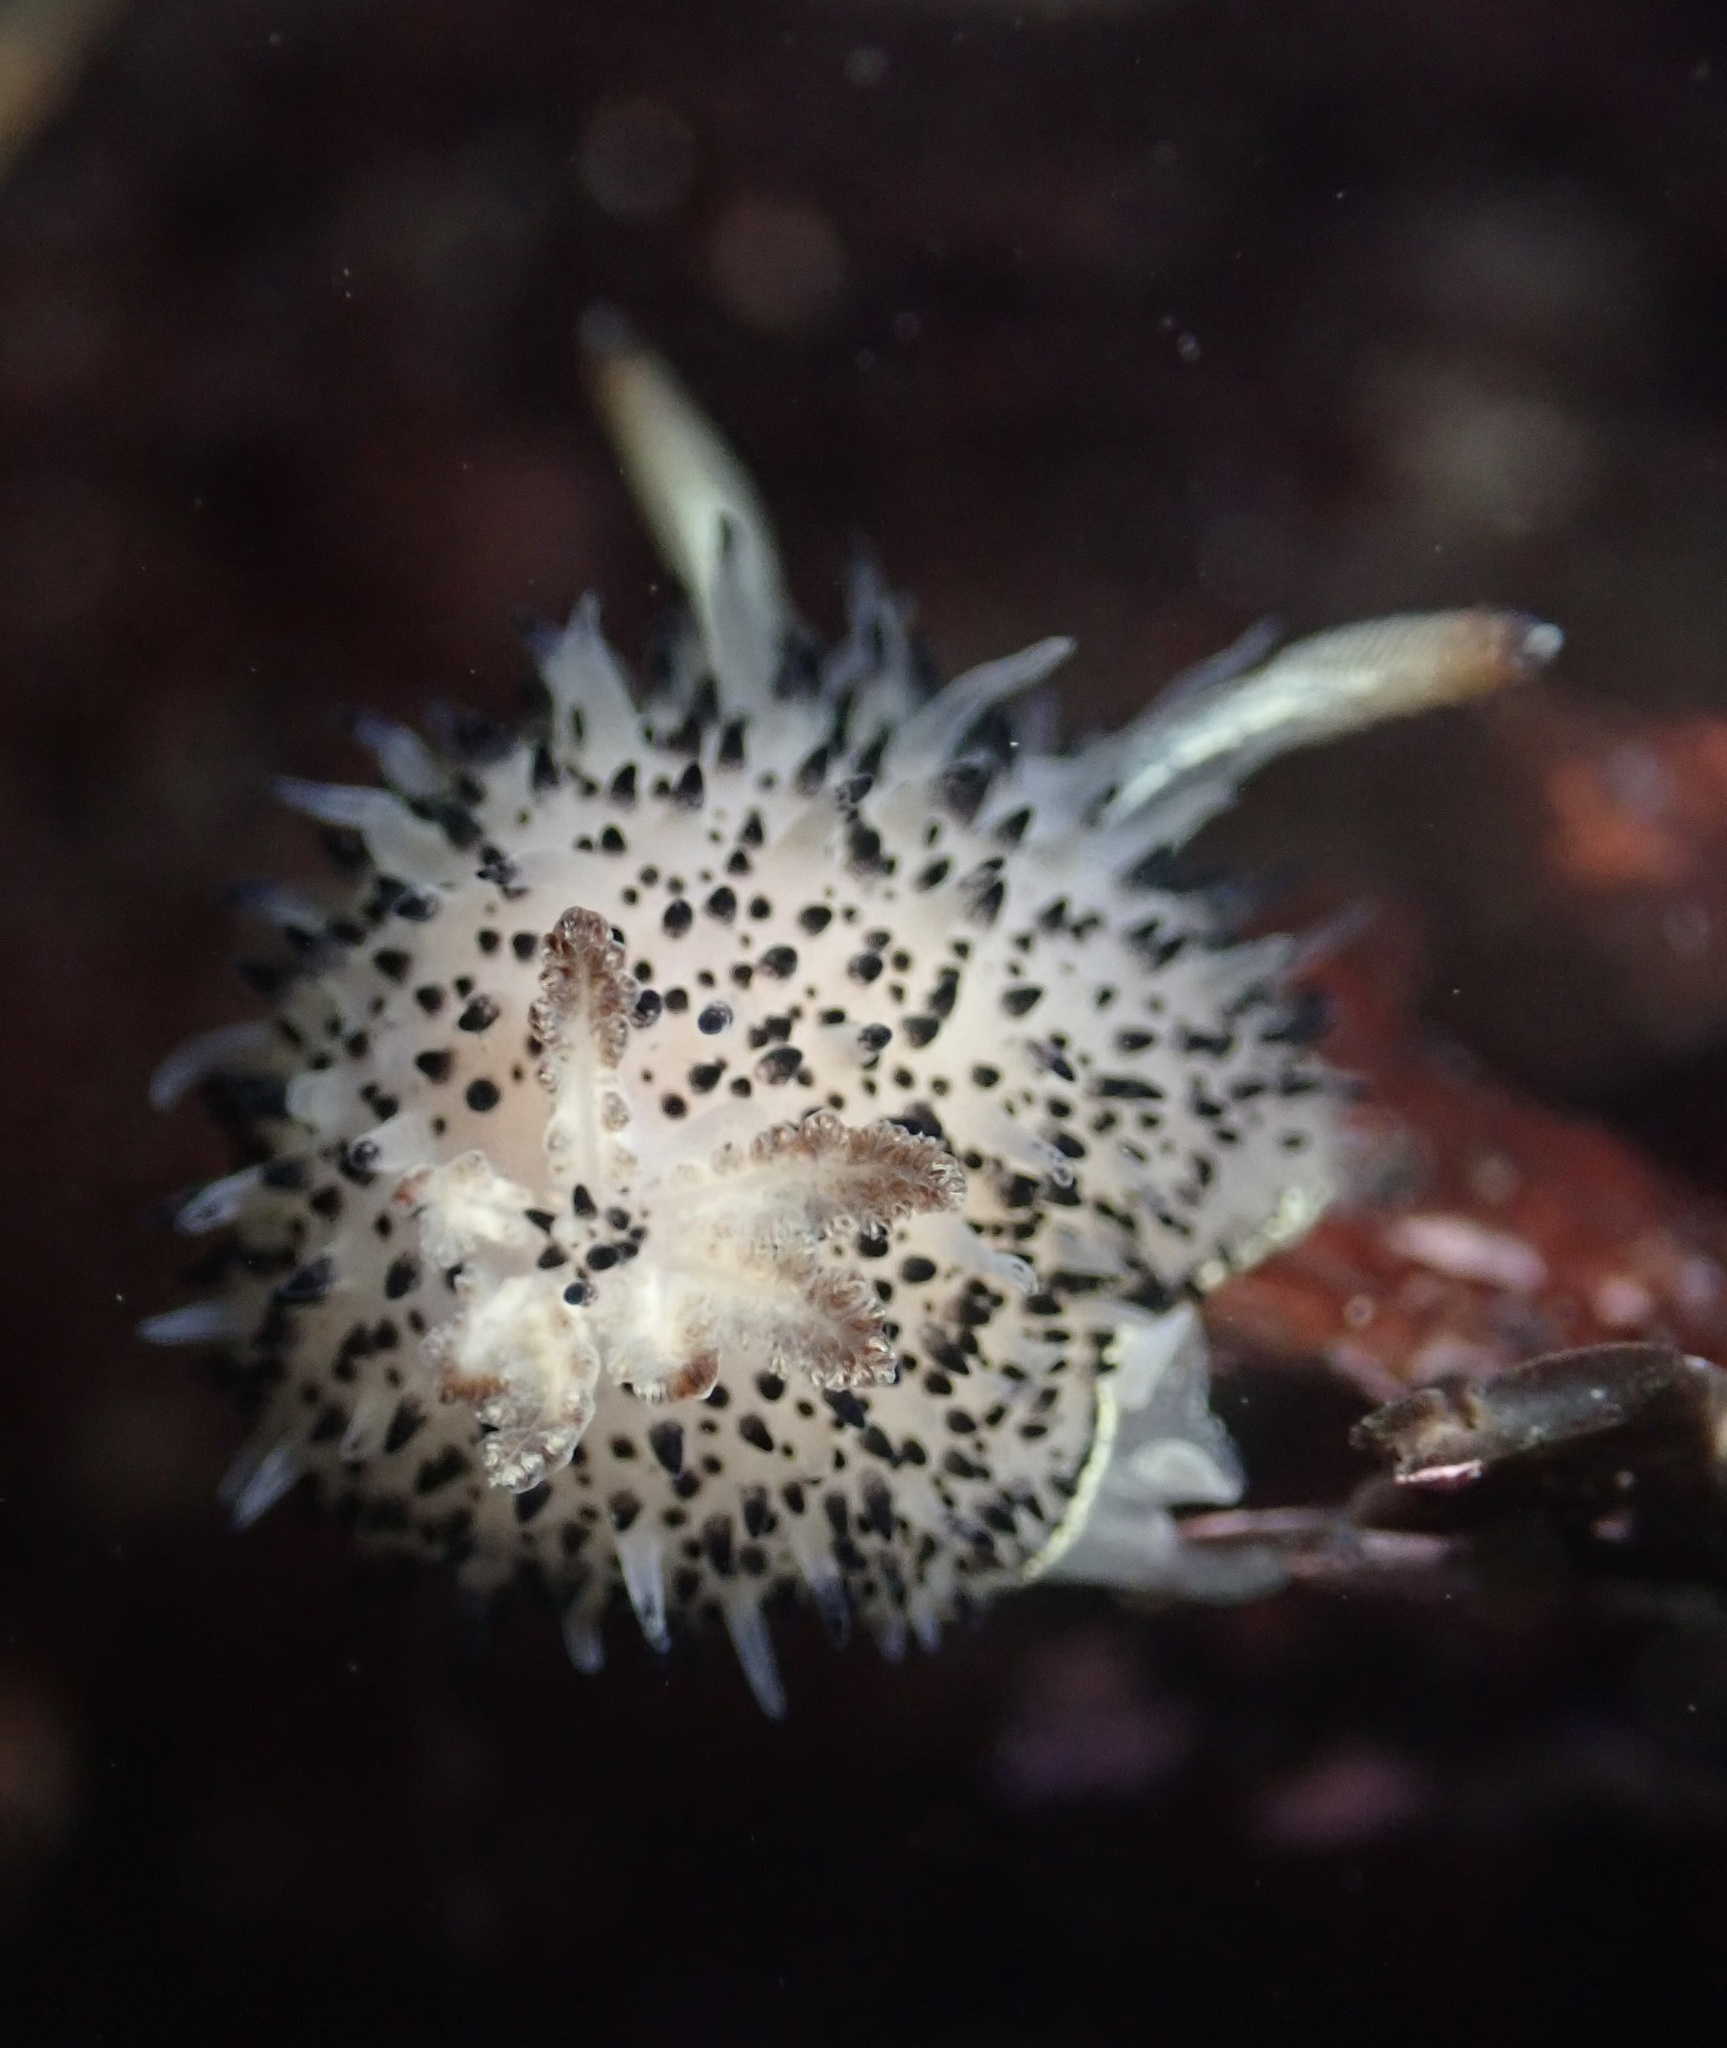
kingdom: Animalia
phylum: Mollusca
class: Gastropoda
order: Nudibranchia
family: Onchidorididae
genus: Acanthodoris
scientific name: Acanthodoris rhodoceras
